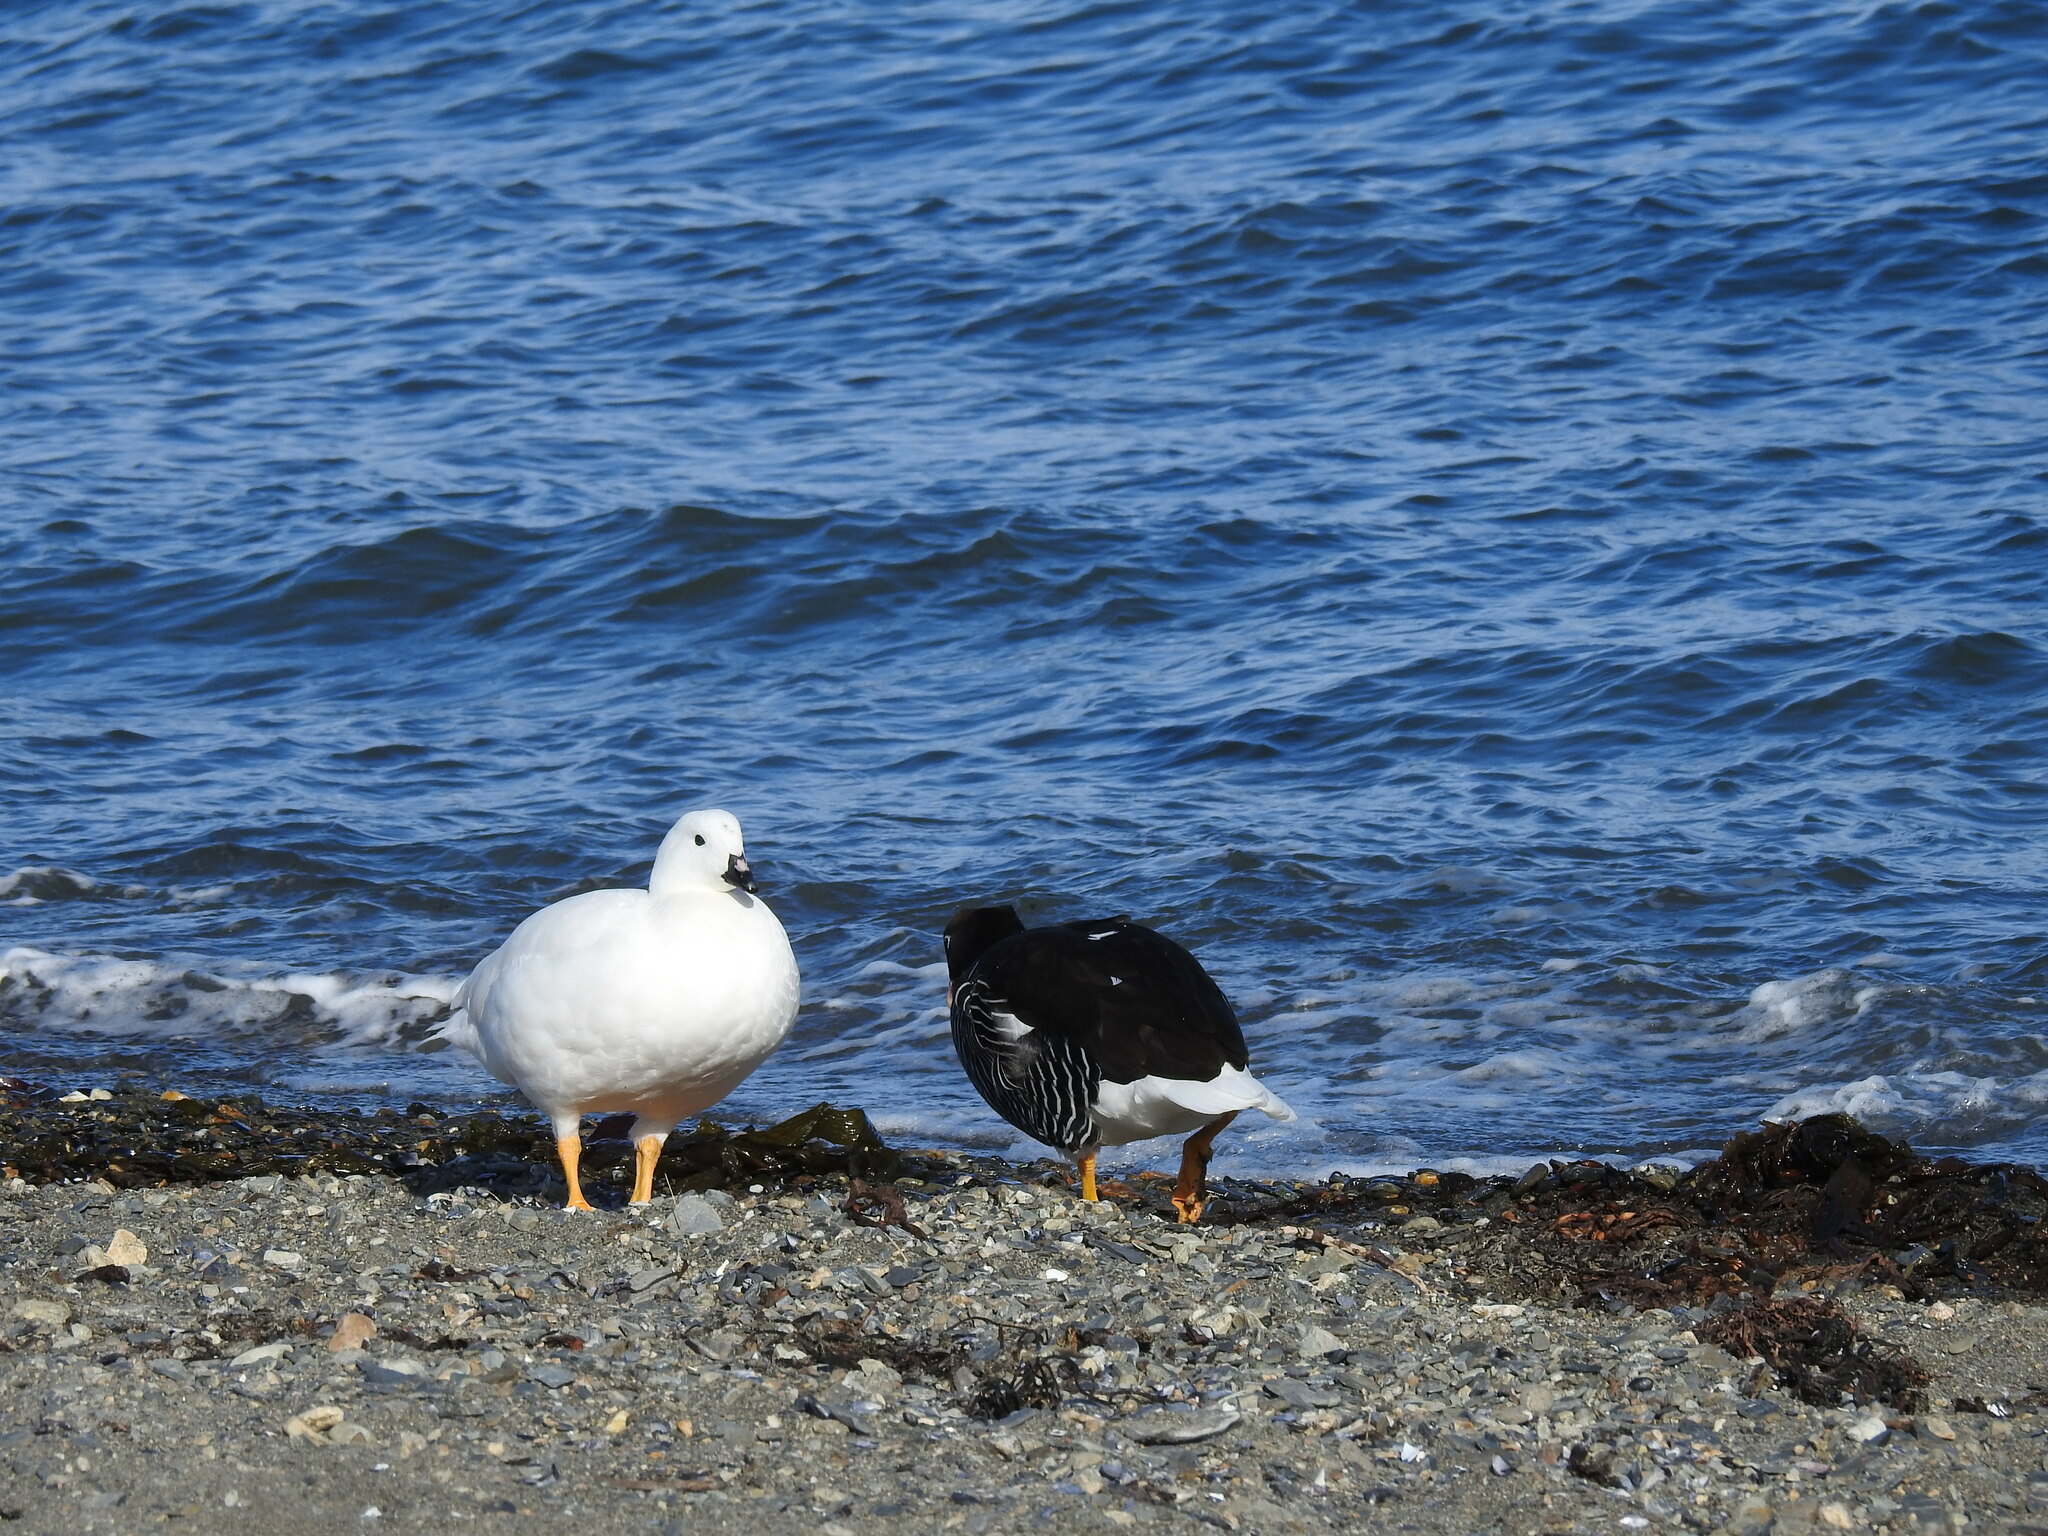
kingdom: Animalia
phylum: Chordata
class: Aves
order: Anseriformes
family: Anatidae
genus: Chloephaga
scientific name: Chloephaga hybrida
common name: Kelp goose
